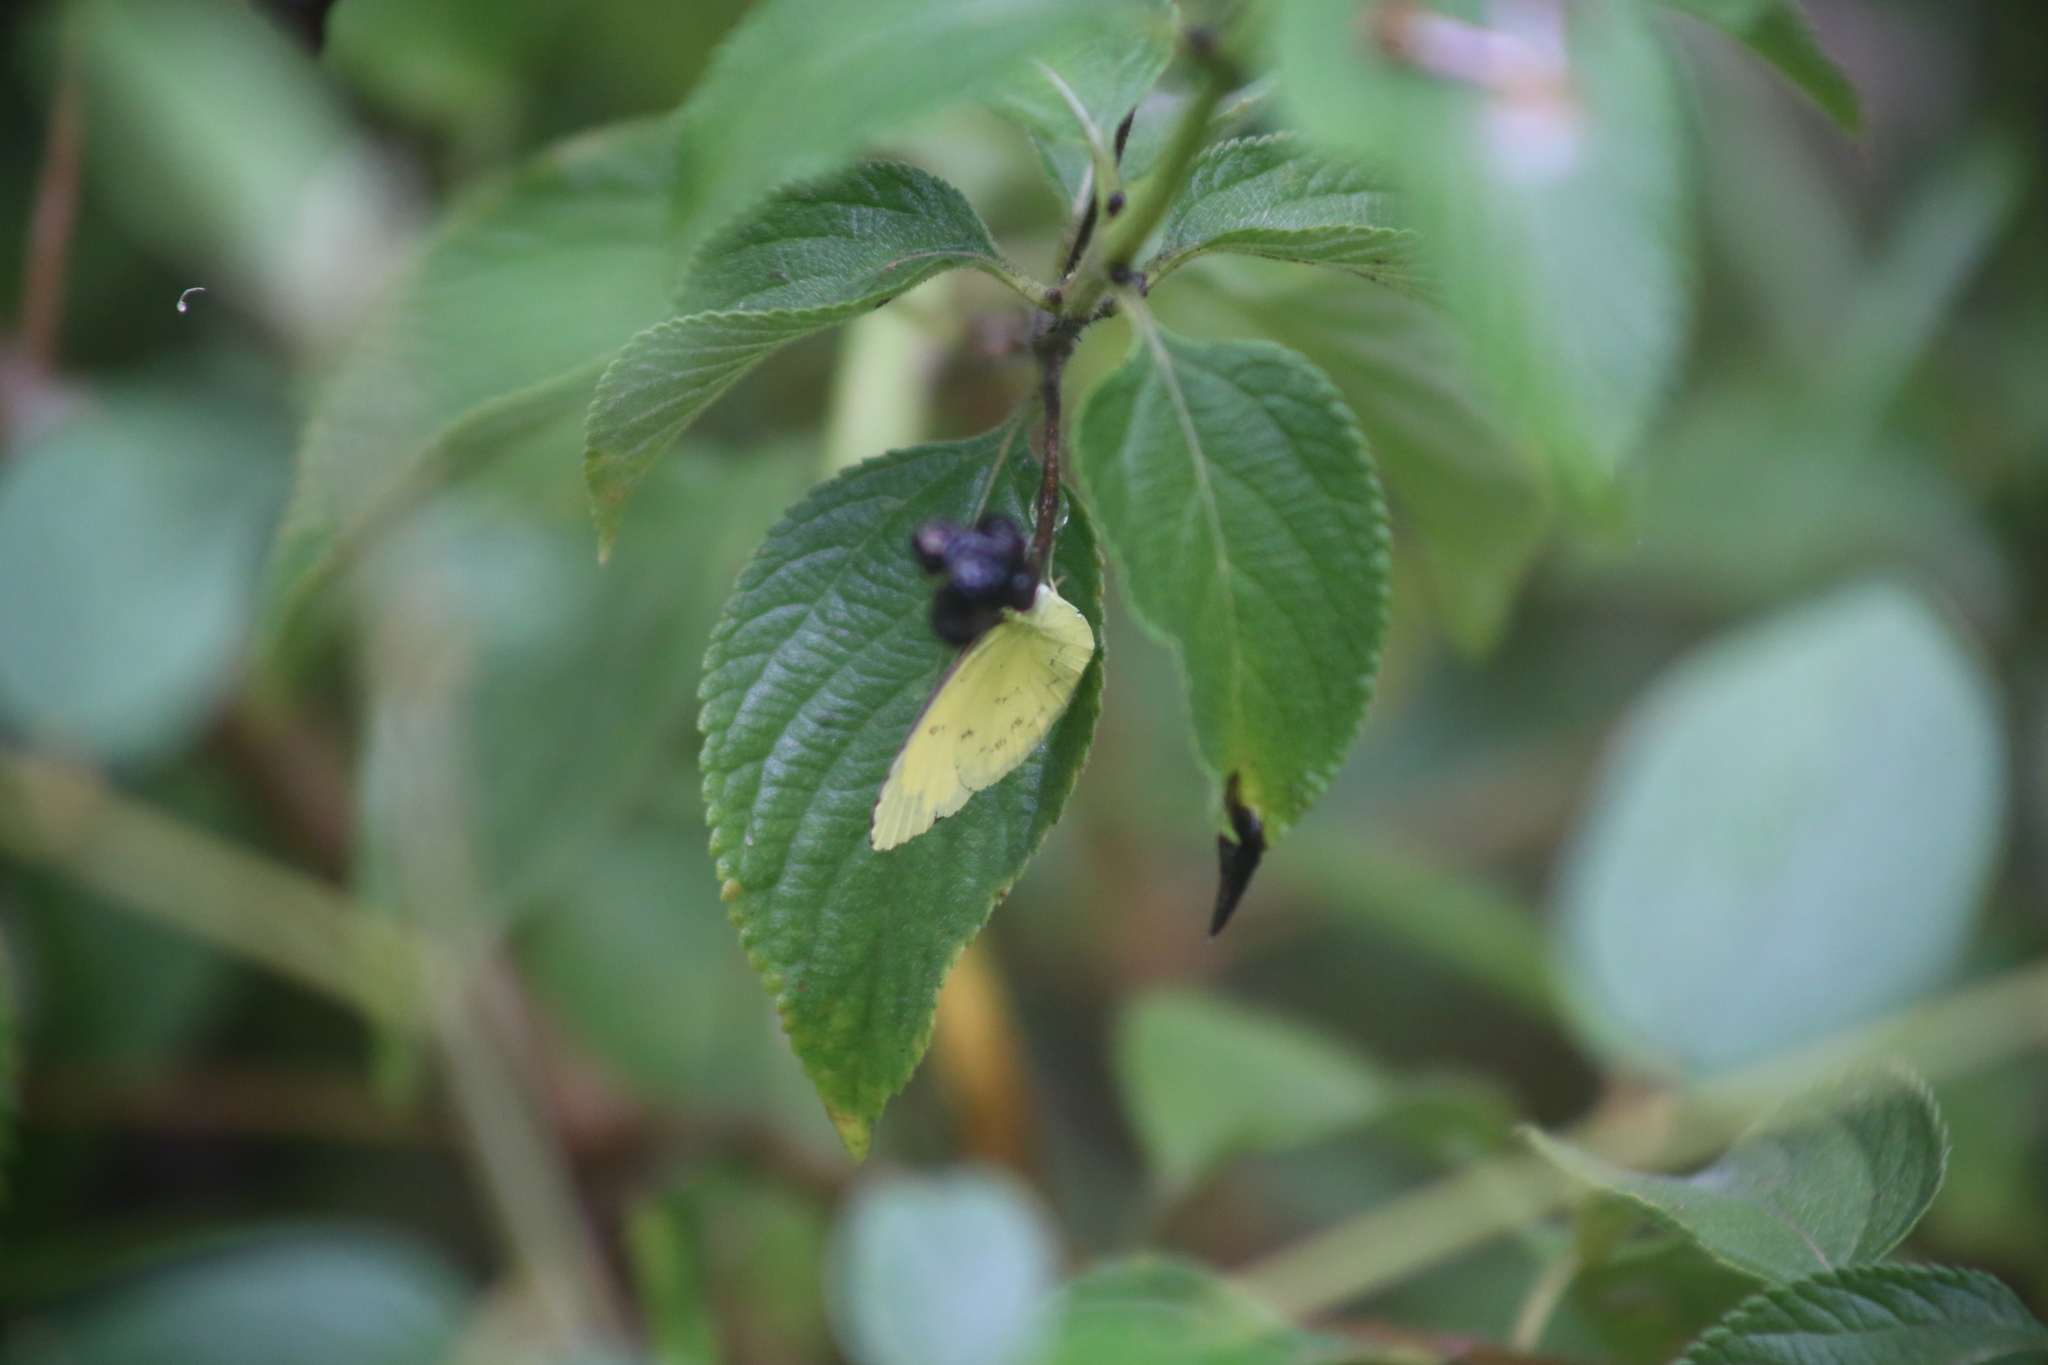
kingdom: Animalia
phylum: Arthropoda
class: Insecta
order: Lepidoptera
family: Pieridae
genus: Eurema
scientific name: Eurema hecabe
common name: Pale grass yellow
